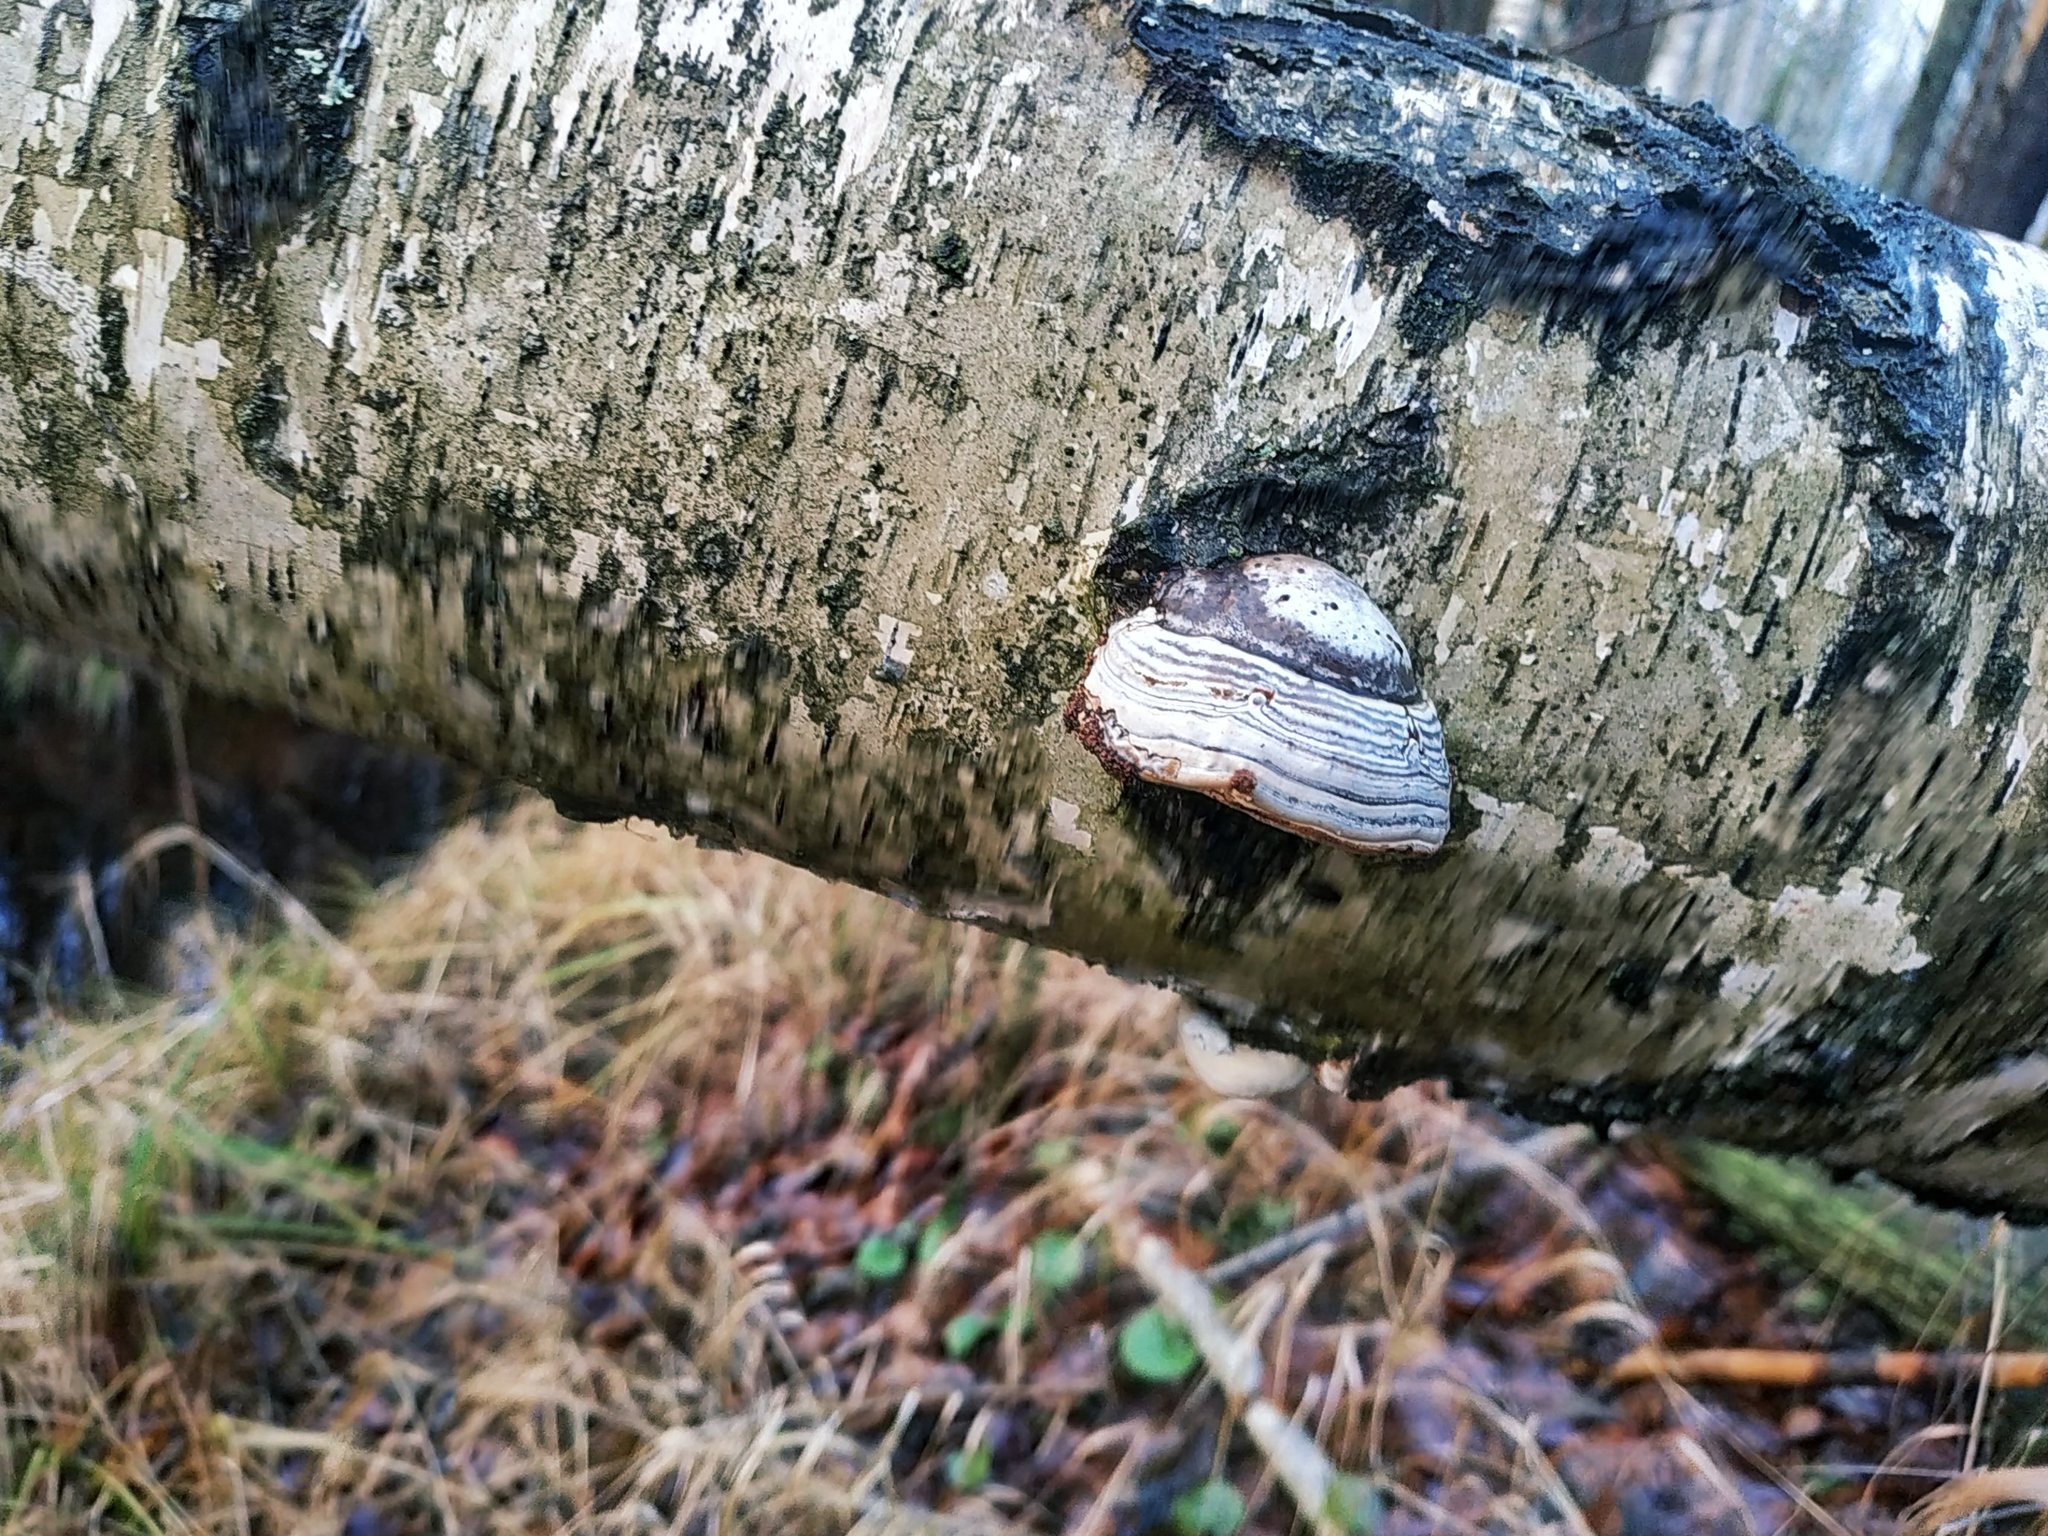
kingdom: Fungi
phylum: Basidiomycota
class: Agaricomycetes
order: Polyporales
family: Polyporaceae
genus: Fomes
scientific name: Fomes fomentarius
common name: Hoof fungus
